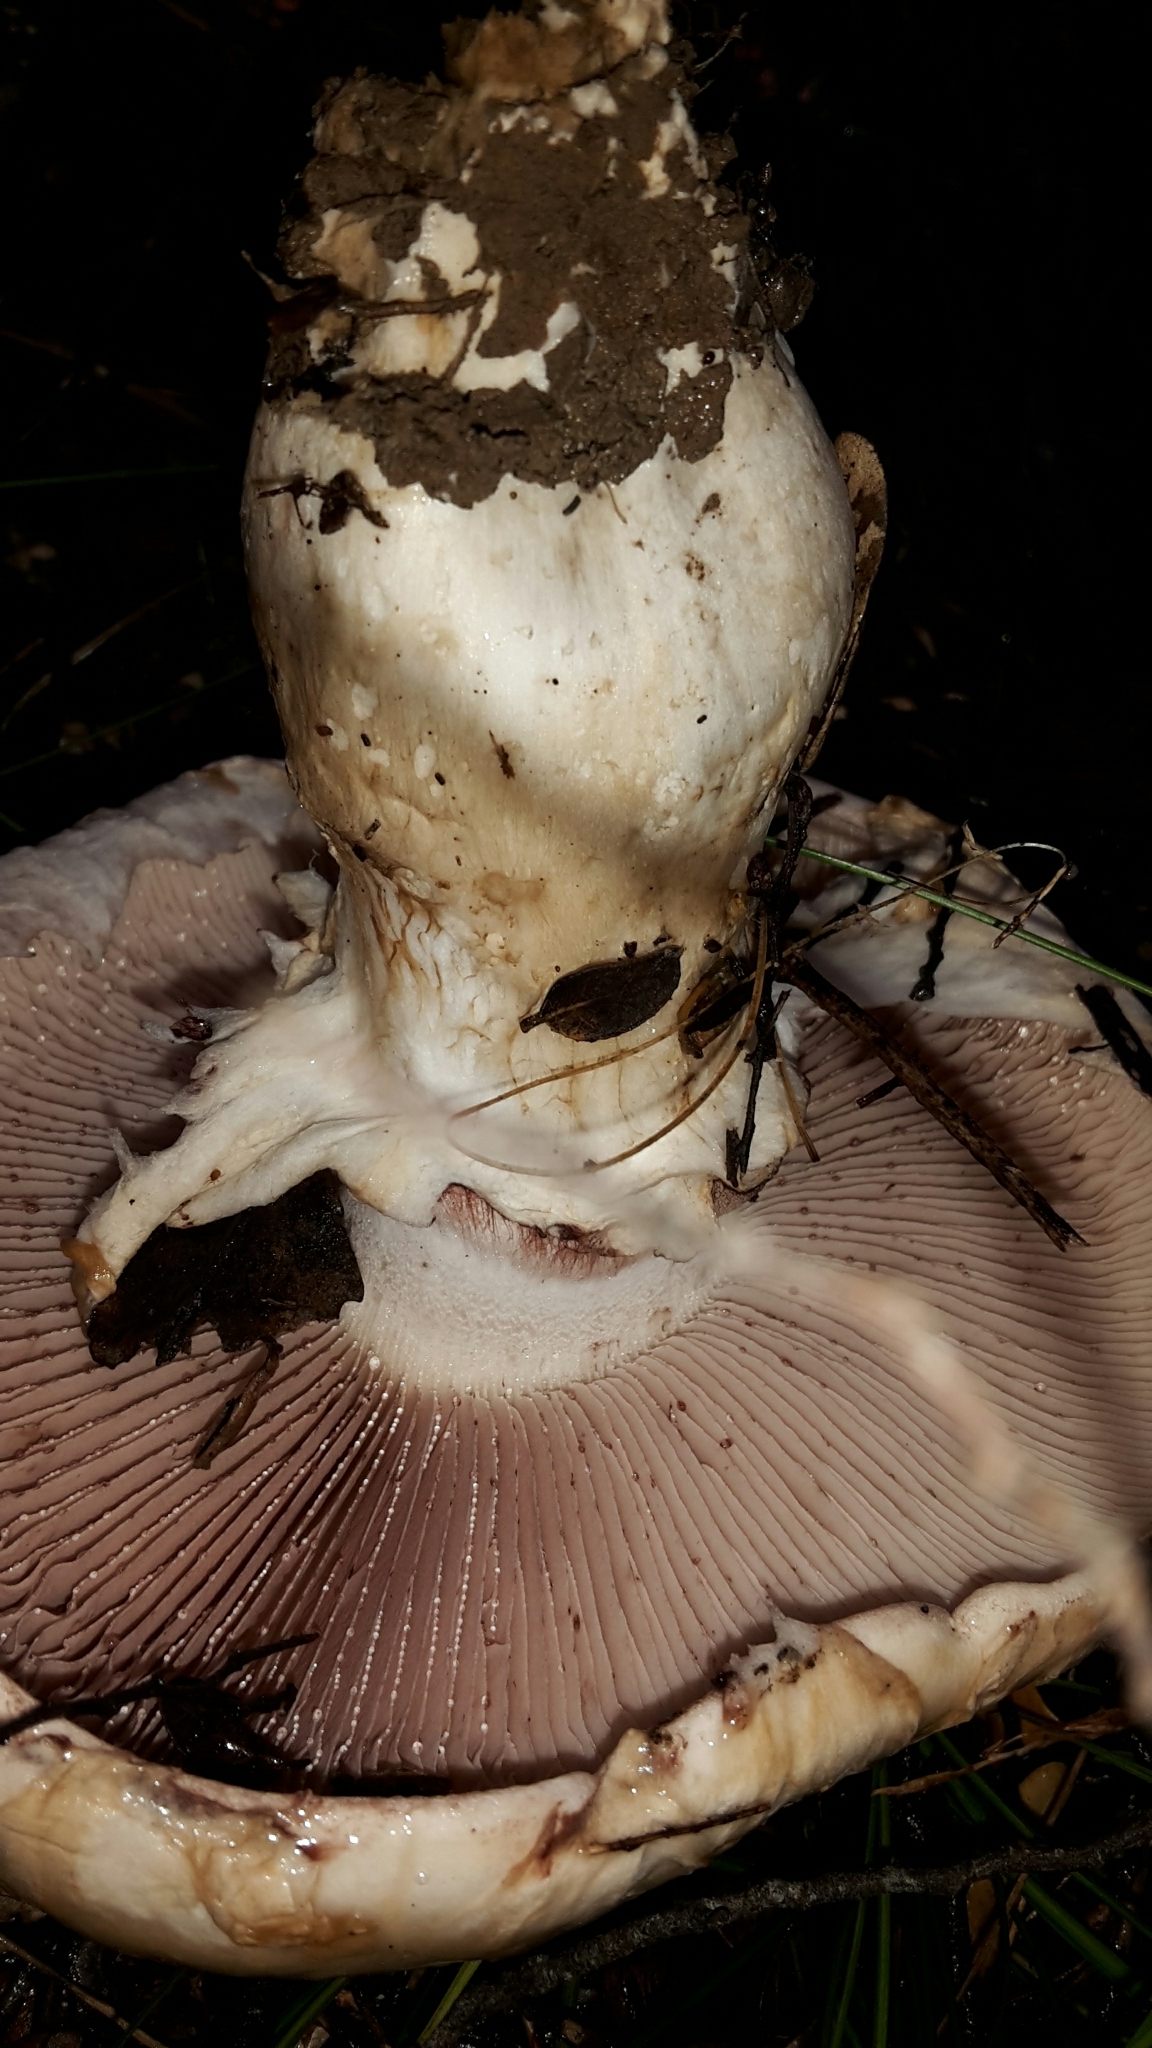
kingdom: Fungi
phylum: Basidiomycota
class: Agaricomycetes
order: Agaricales
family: Hymenogastraceae
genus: Hebeloma
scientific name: Hebeloma victoriense
